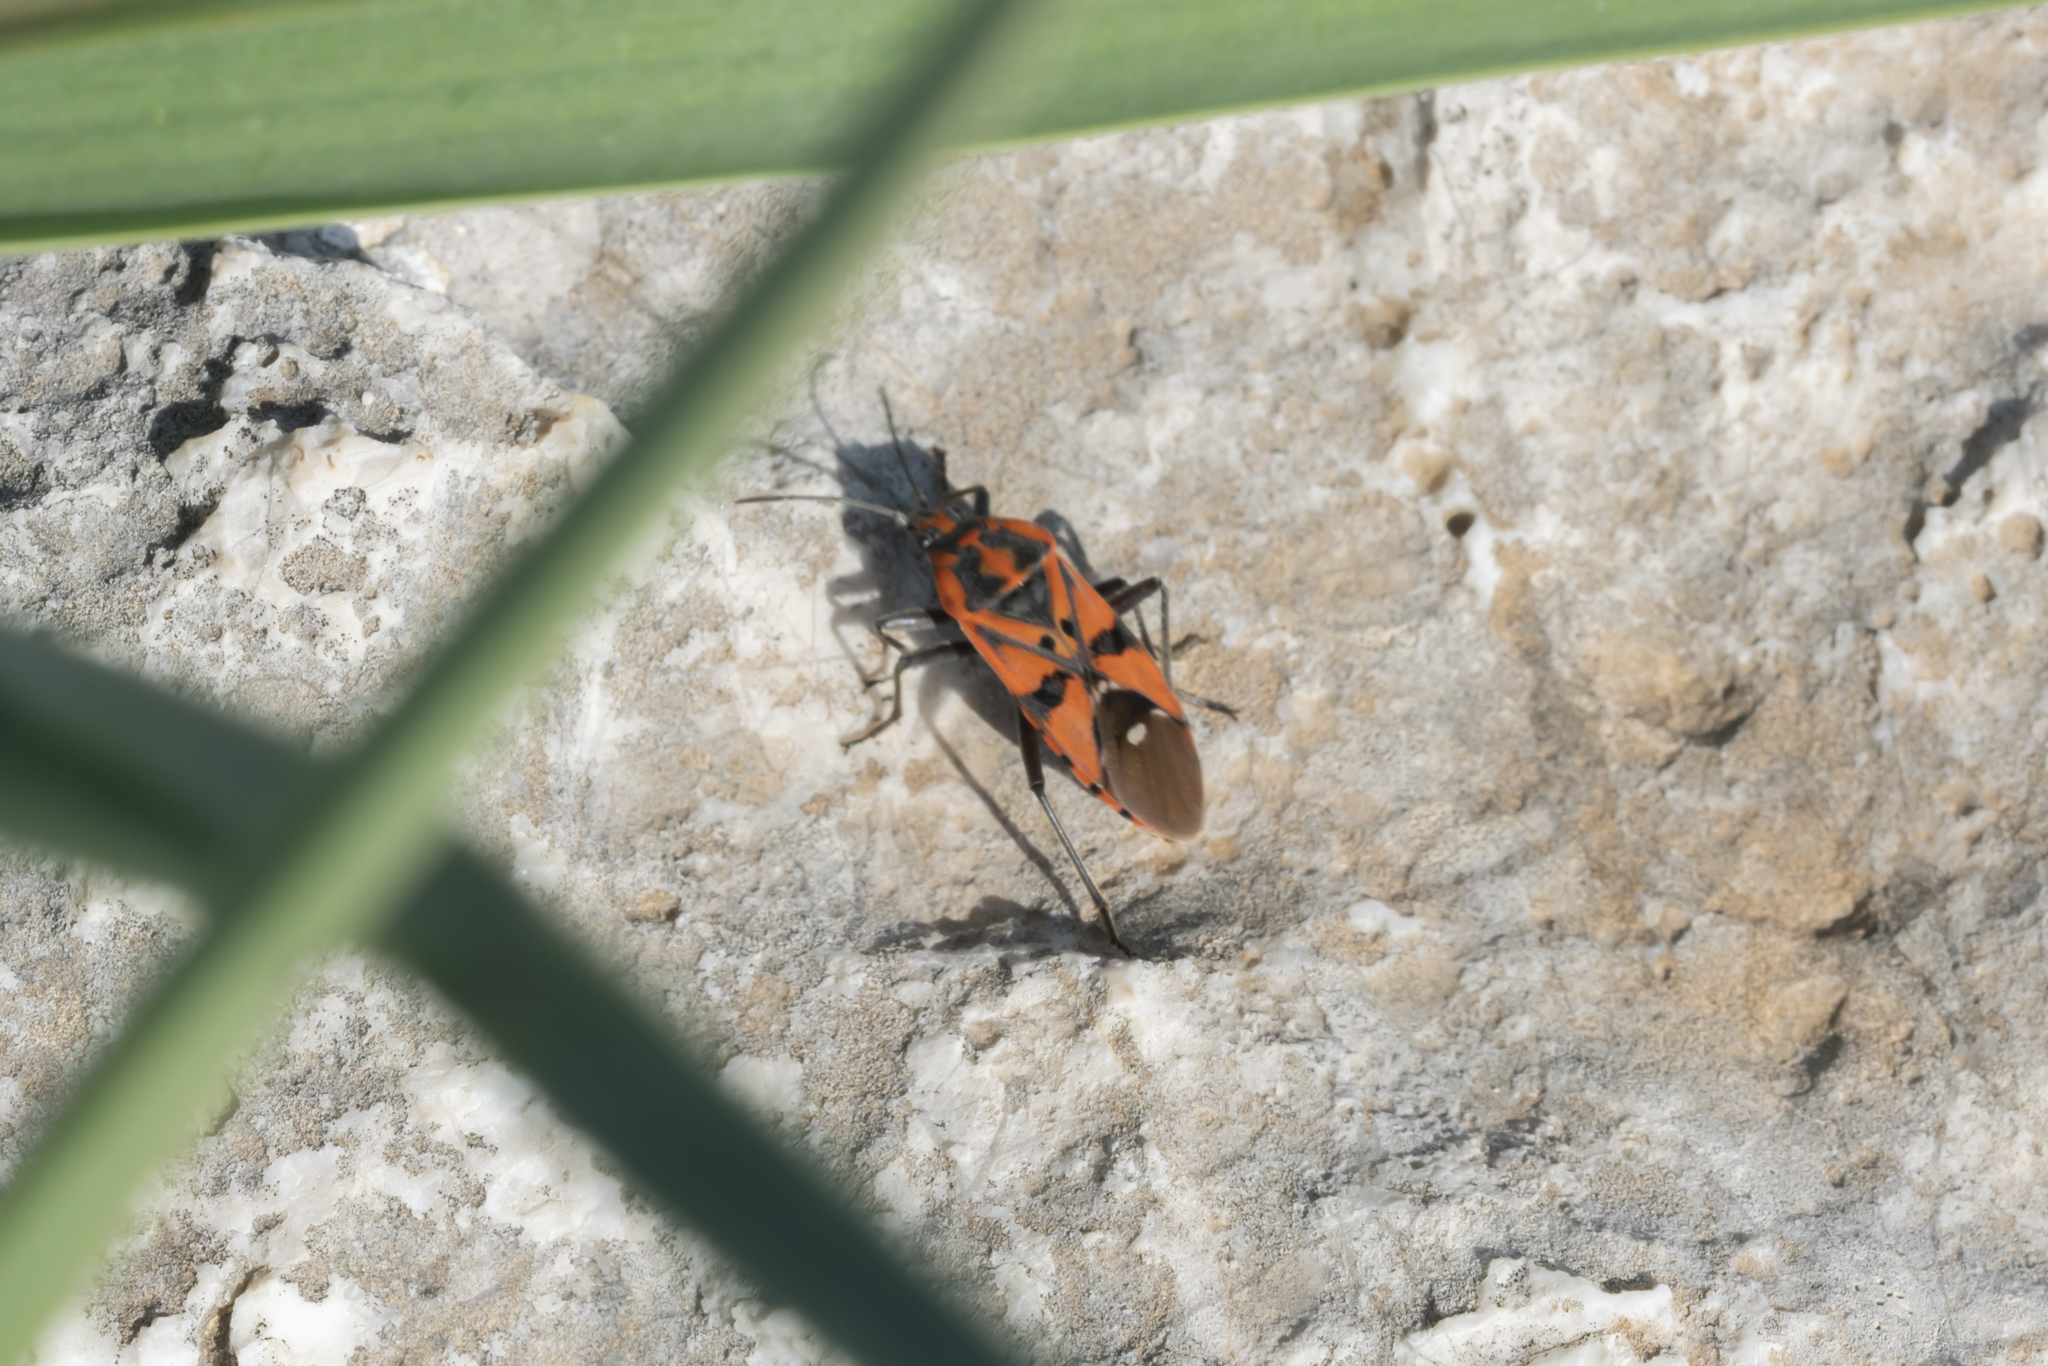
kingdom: Animalia
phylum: Arthropoda
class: Insecta
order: Hemiptera
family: Lygaeidae
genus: Spilostethus
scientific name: Spilostethus pandurus
